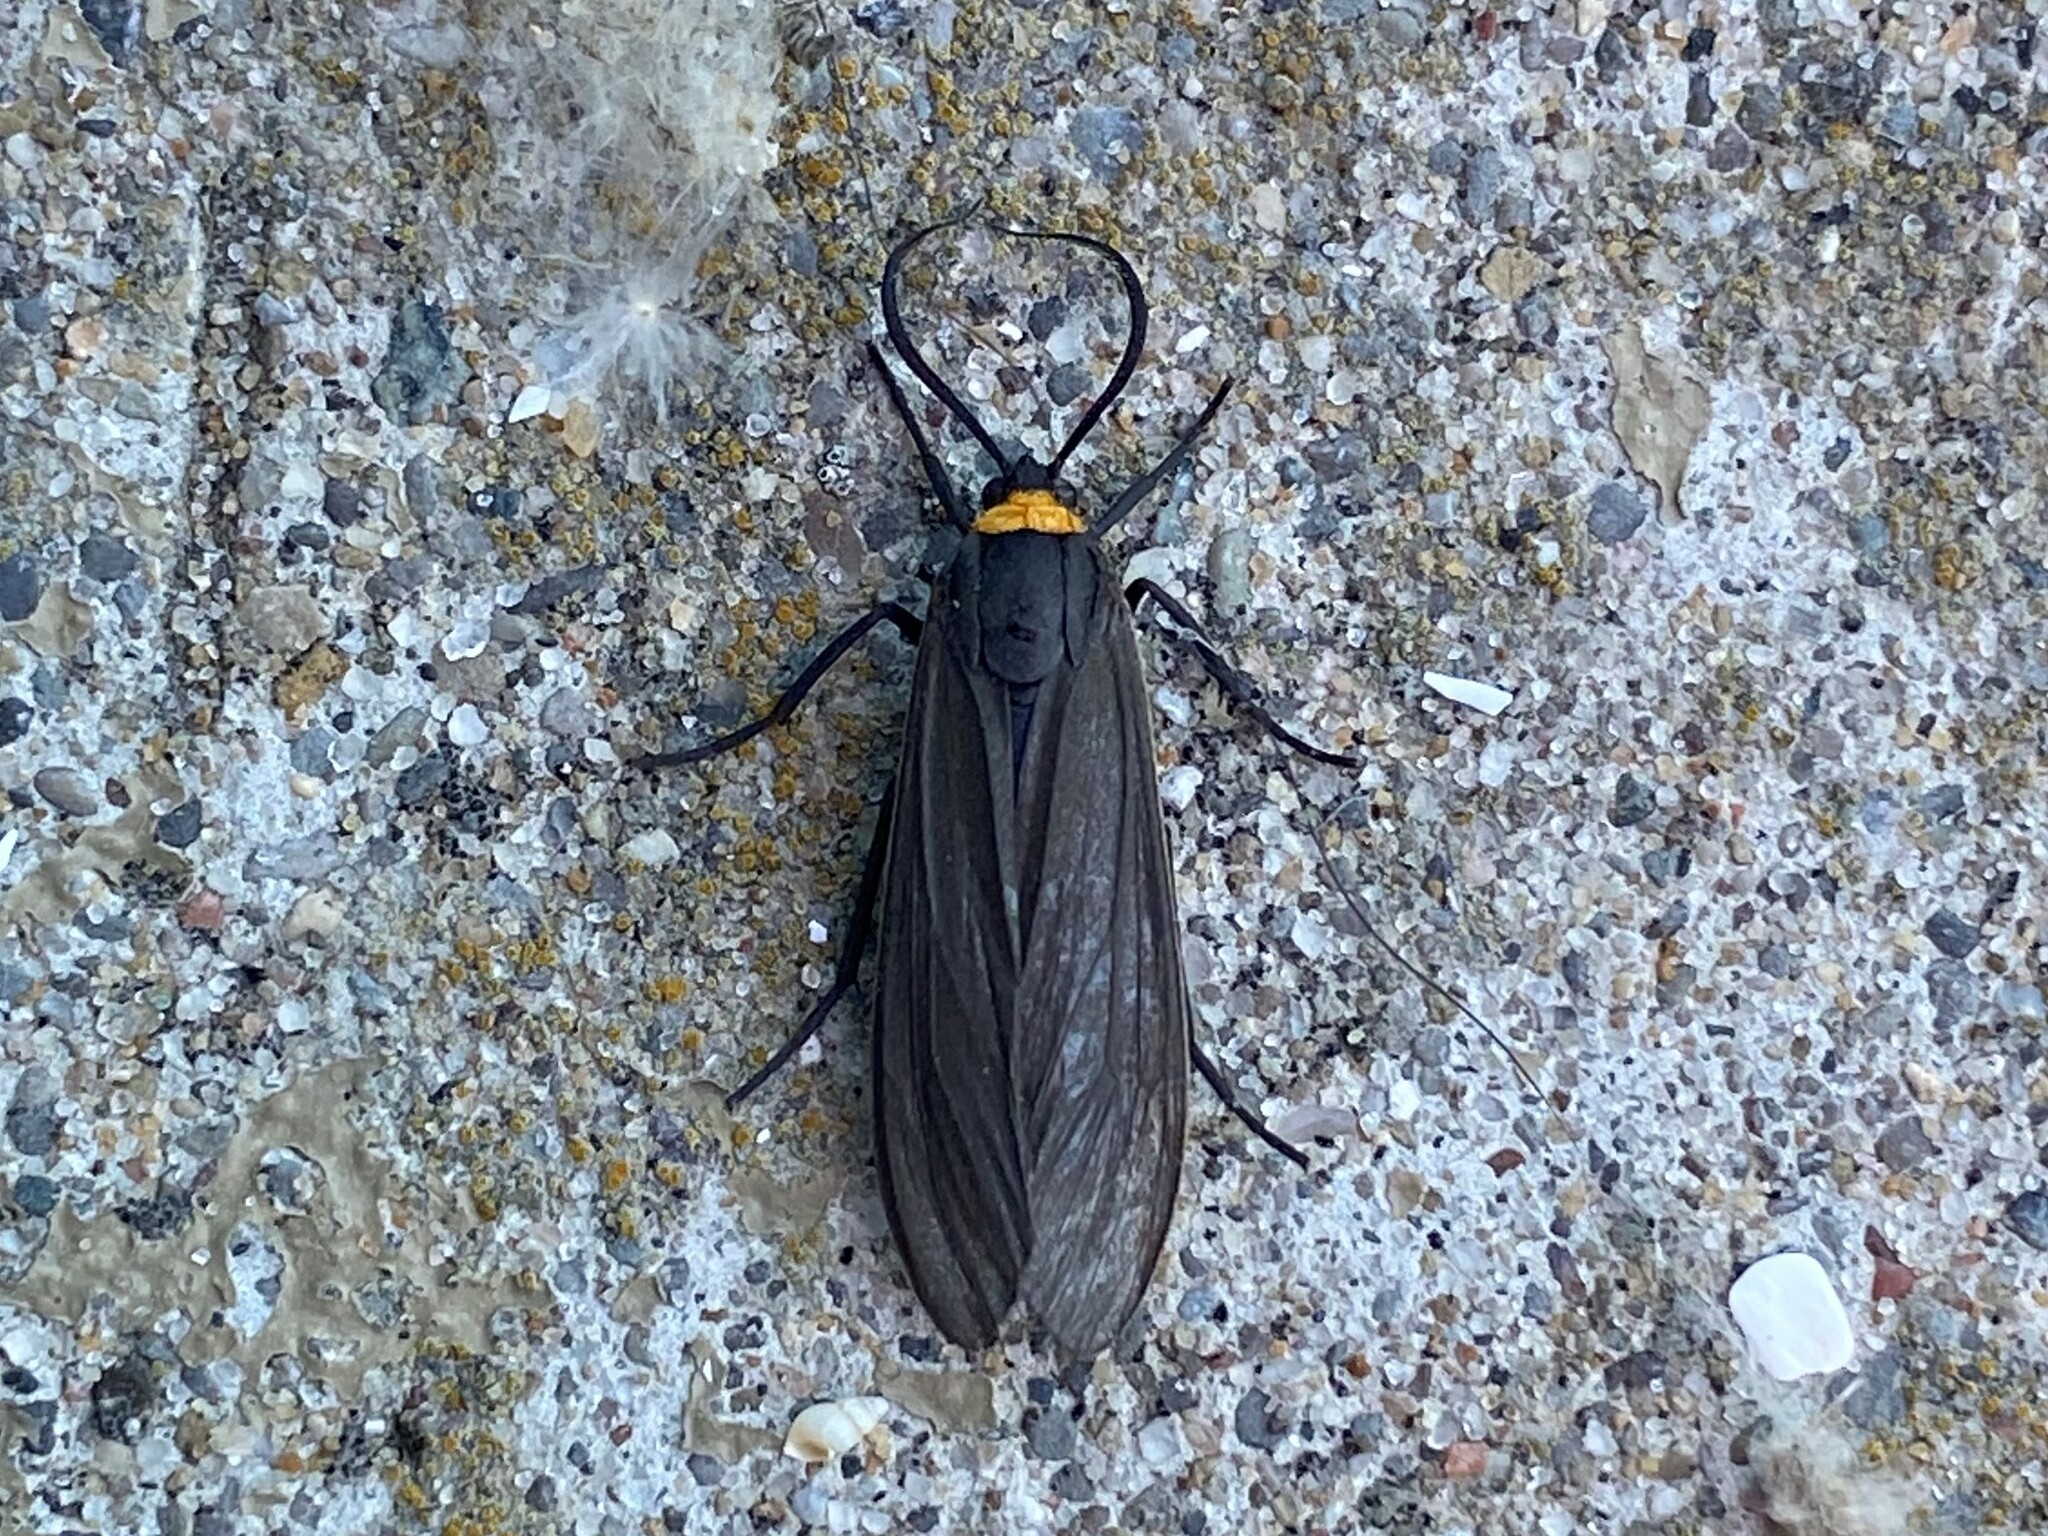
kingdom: Animalia
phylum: Arthropoda
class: Insecta
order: Lepidoptera
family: Erebidae
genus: Cisseps
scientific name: Cisseps fulvicollis
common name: Yellow-collared scape moth
